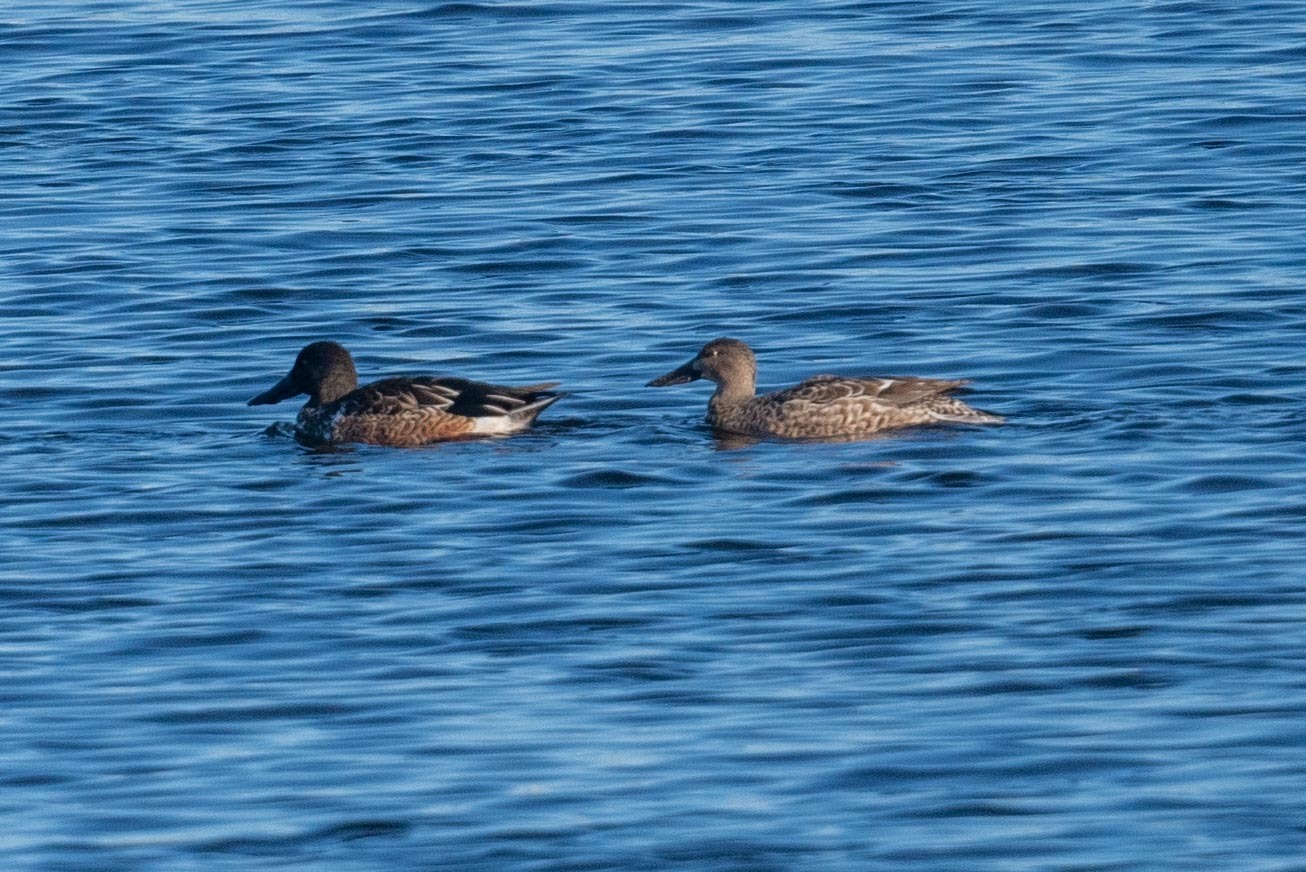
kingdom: Animalia
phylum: Chordata
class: Aves
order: Anseriformes
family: Anatidae
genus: Spatula
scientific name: Spatula clypeata
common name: Northern shoveler
